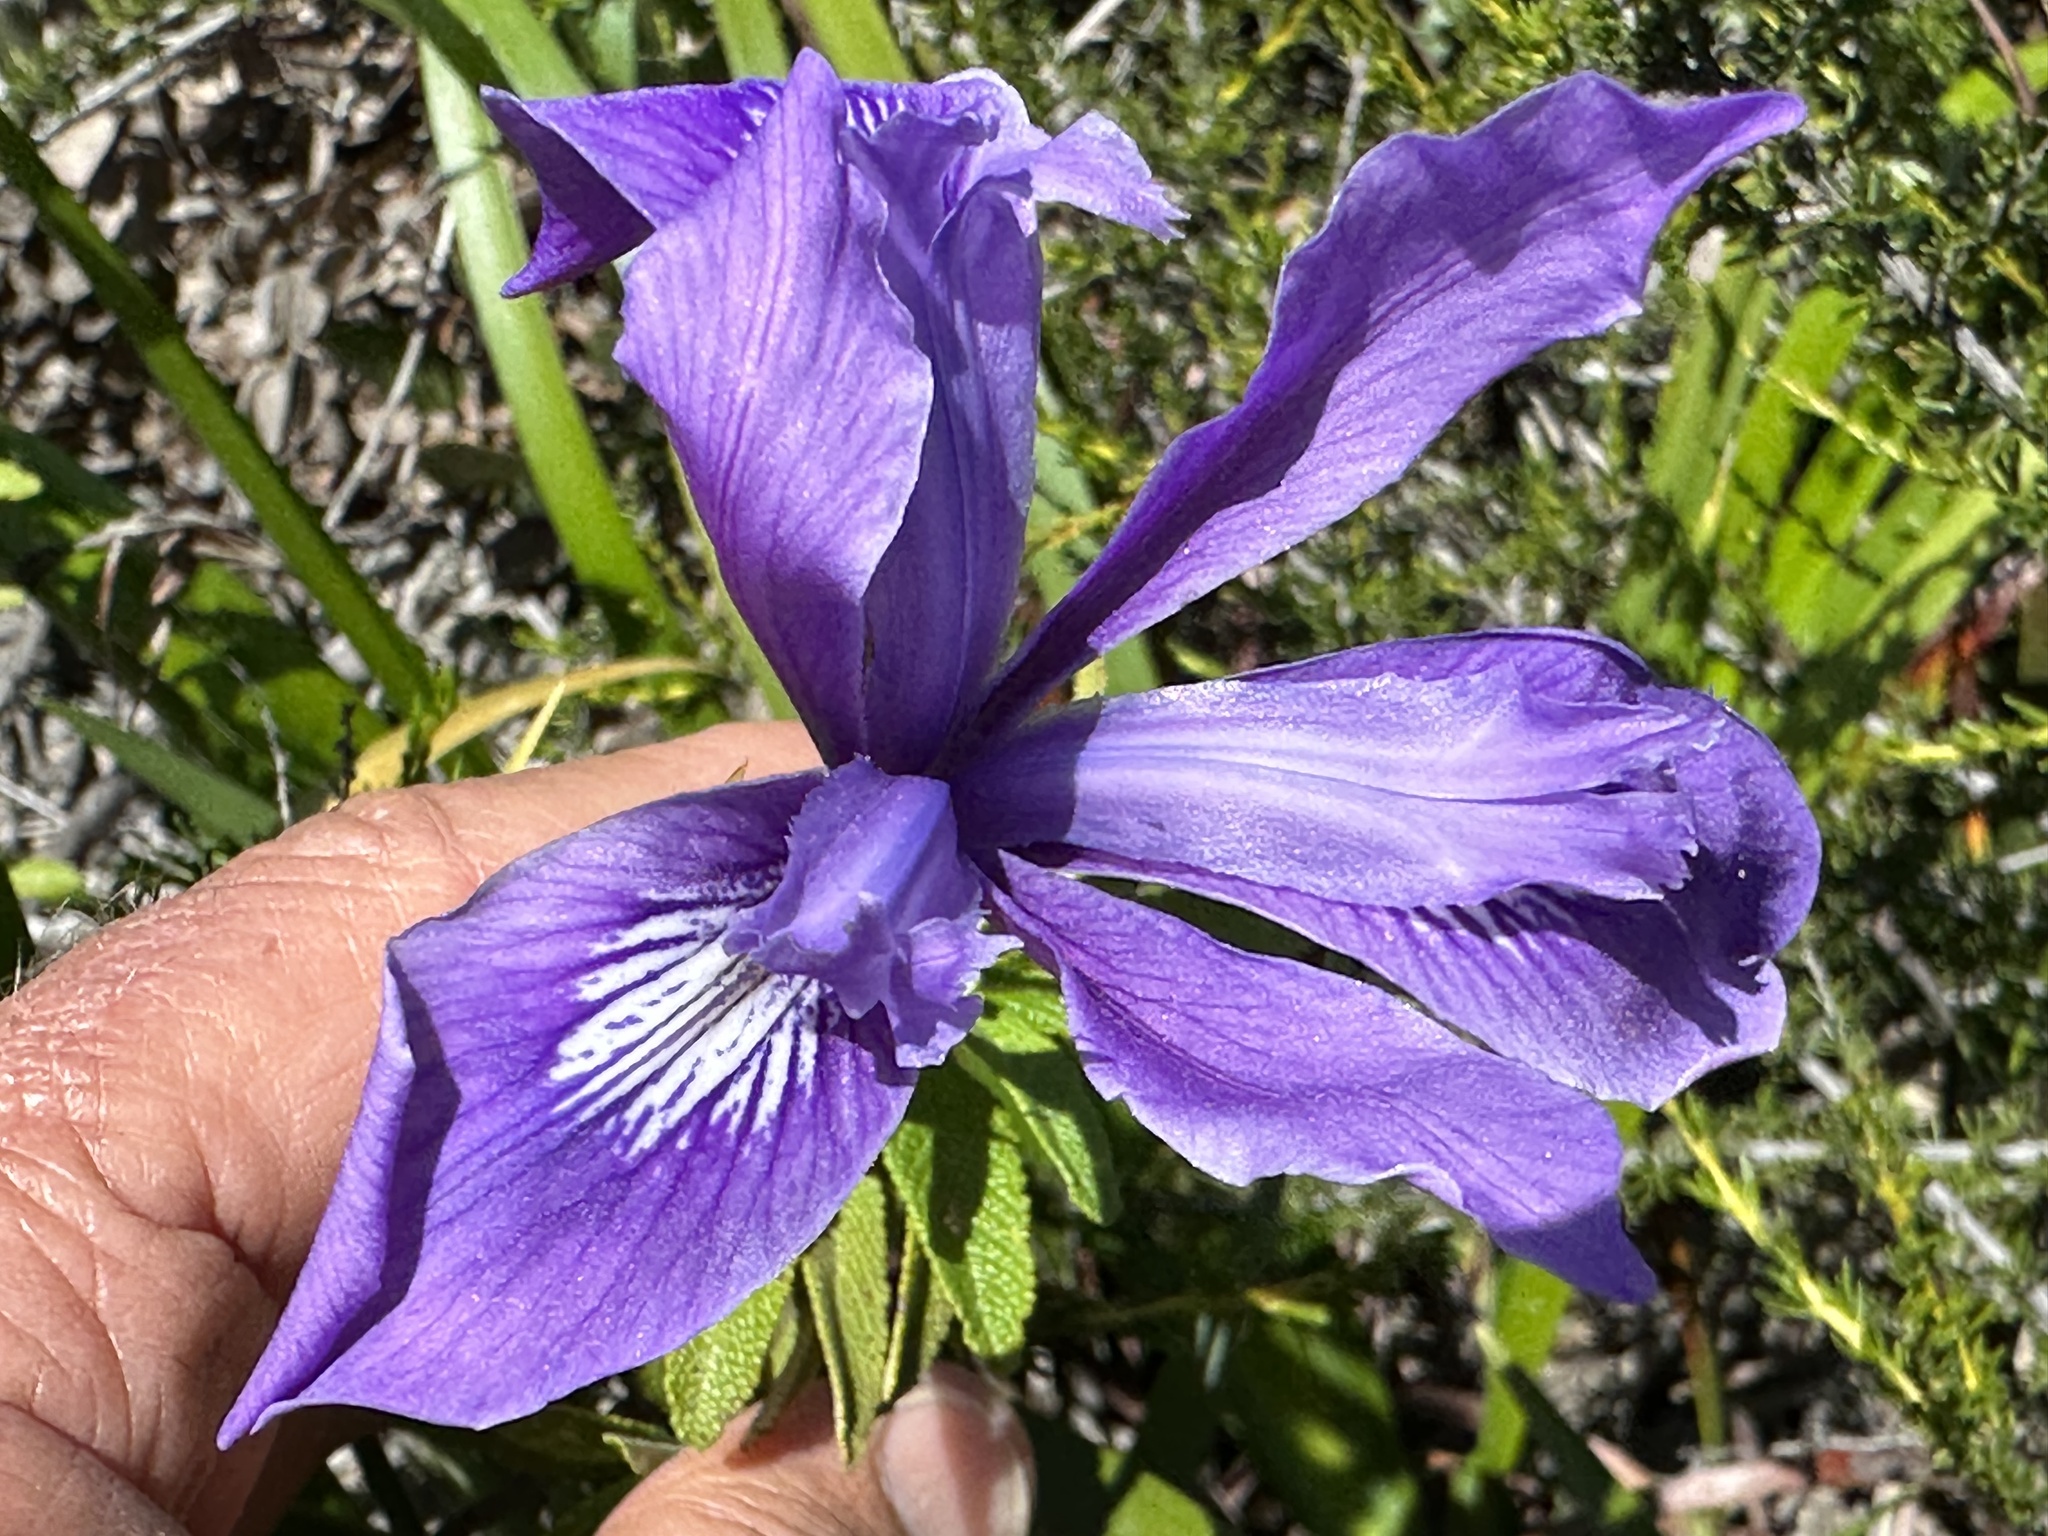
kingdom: Plantae
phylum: Tracheophyta
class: Liliopsida
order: Asparagales
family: Iridaceae
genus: Iris
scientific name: Iris douglasiana
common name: Marin iris
